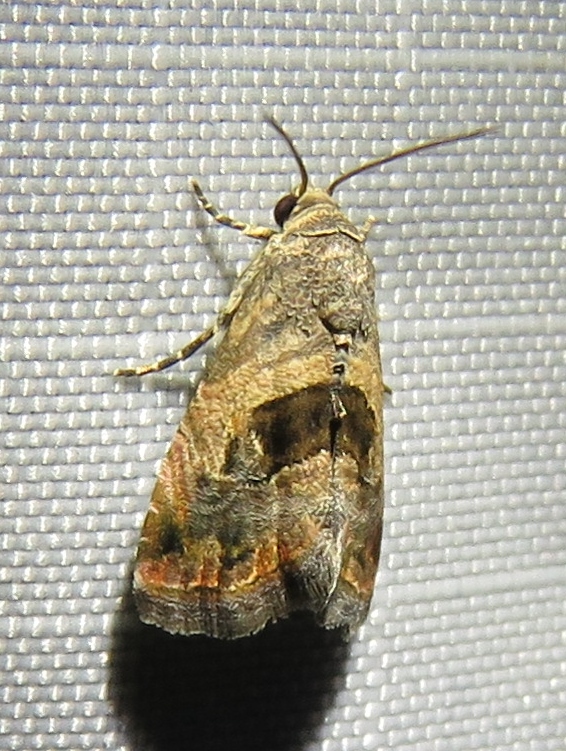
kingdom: Animalia
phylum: Arthropoda
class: Insecta
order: Lepidoptera
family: Noctuidae
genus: Tripudia
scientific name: Tripudia quadrifera
